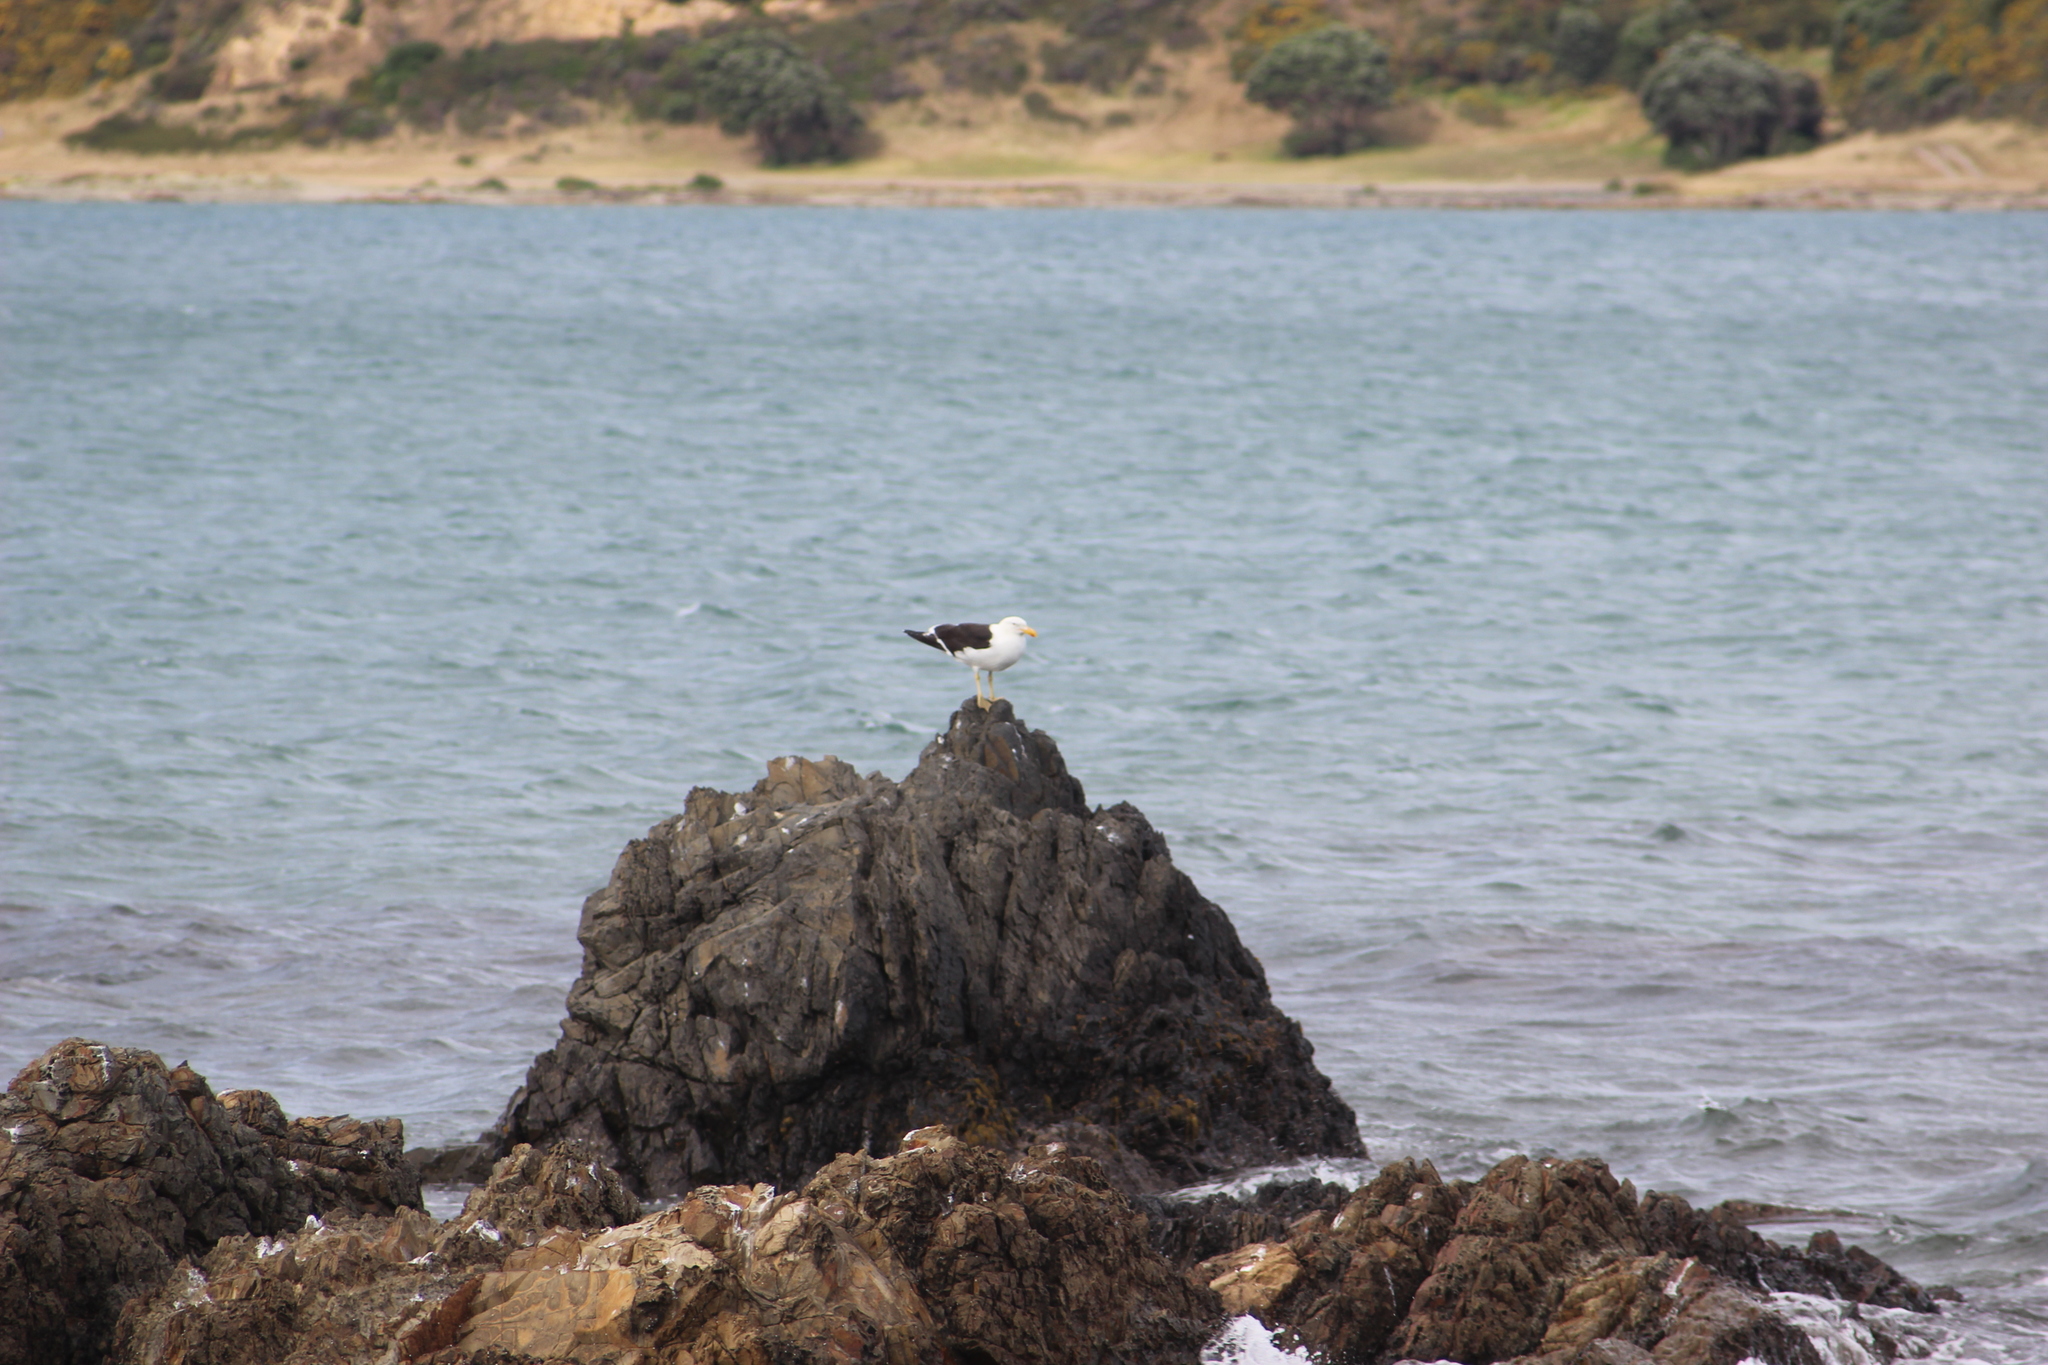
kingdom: Animalia
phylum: Chordata
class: Aves
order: Charadriiformes
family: Laridae
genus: Larus
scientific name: Larus dominicanus
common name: Kelp gull
